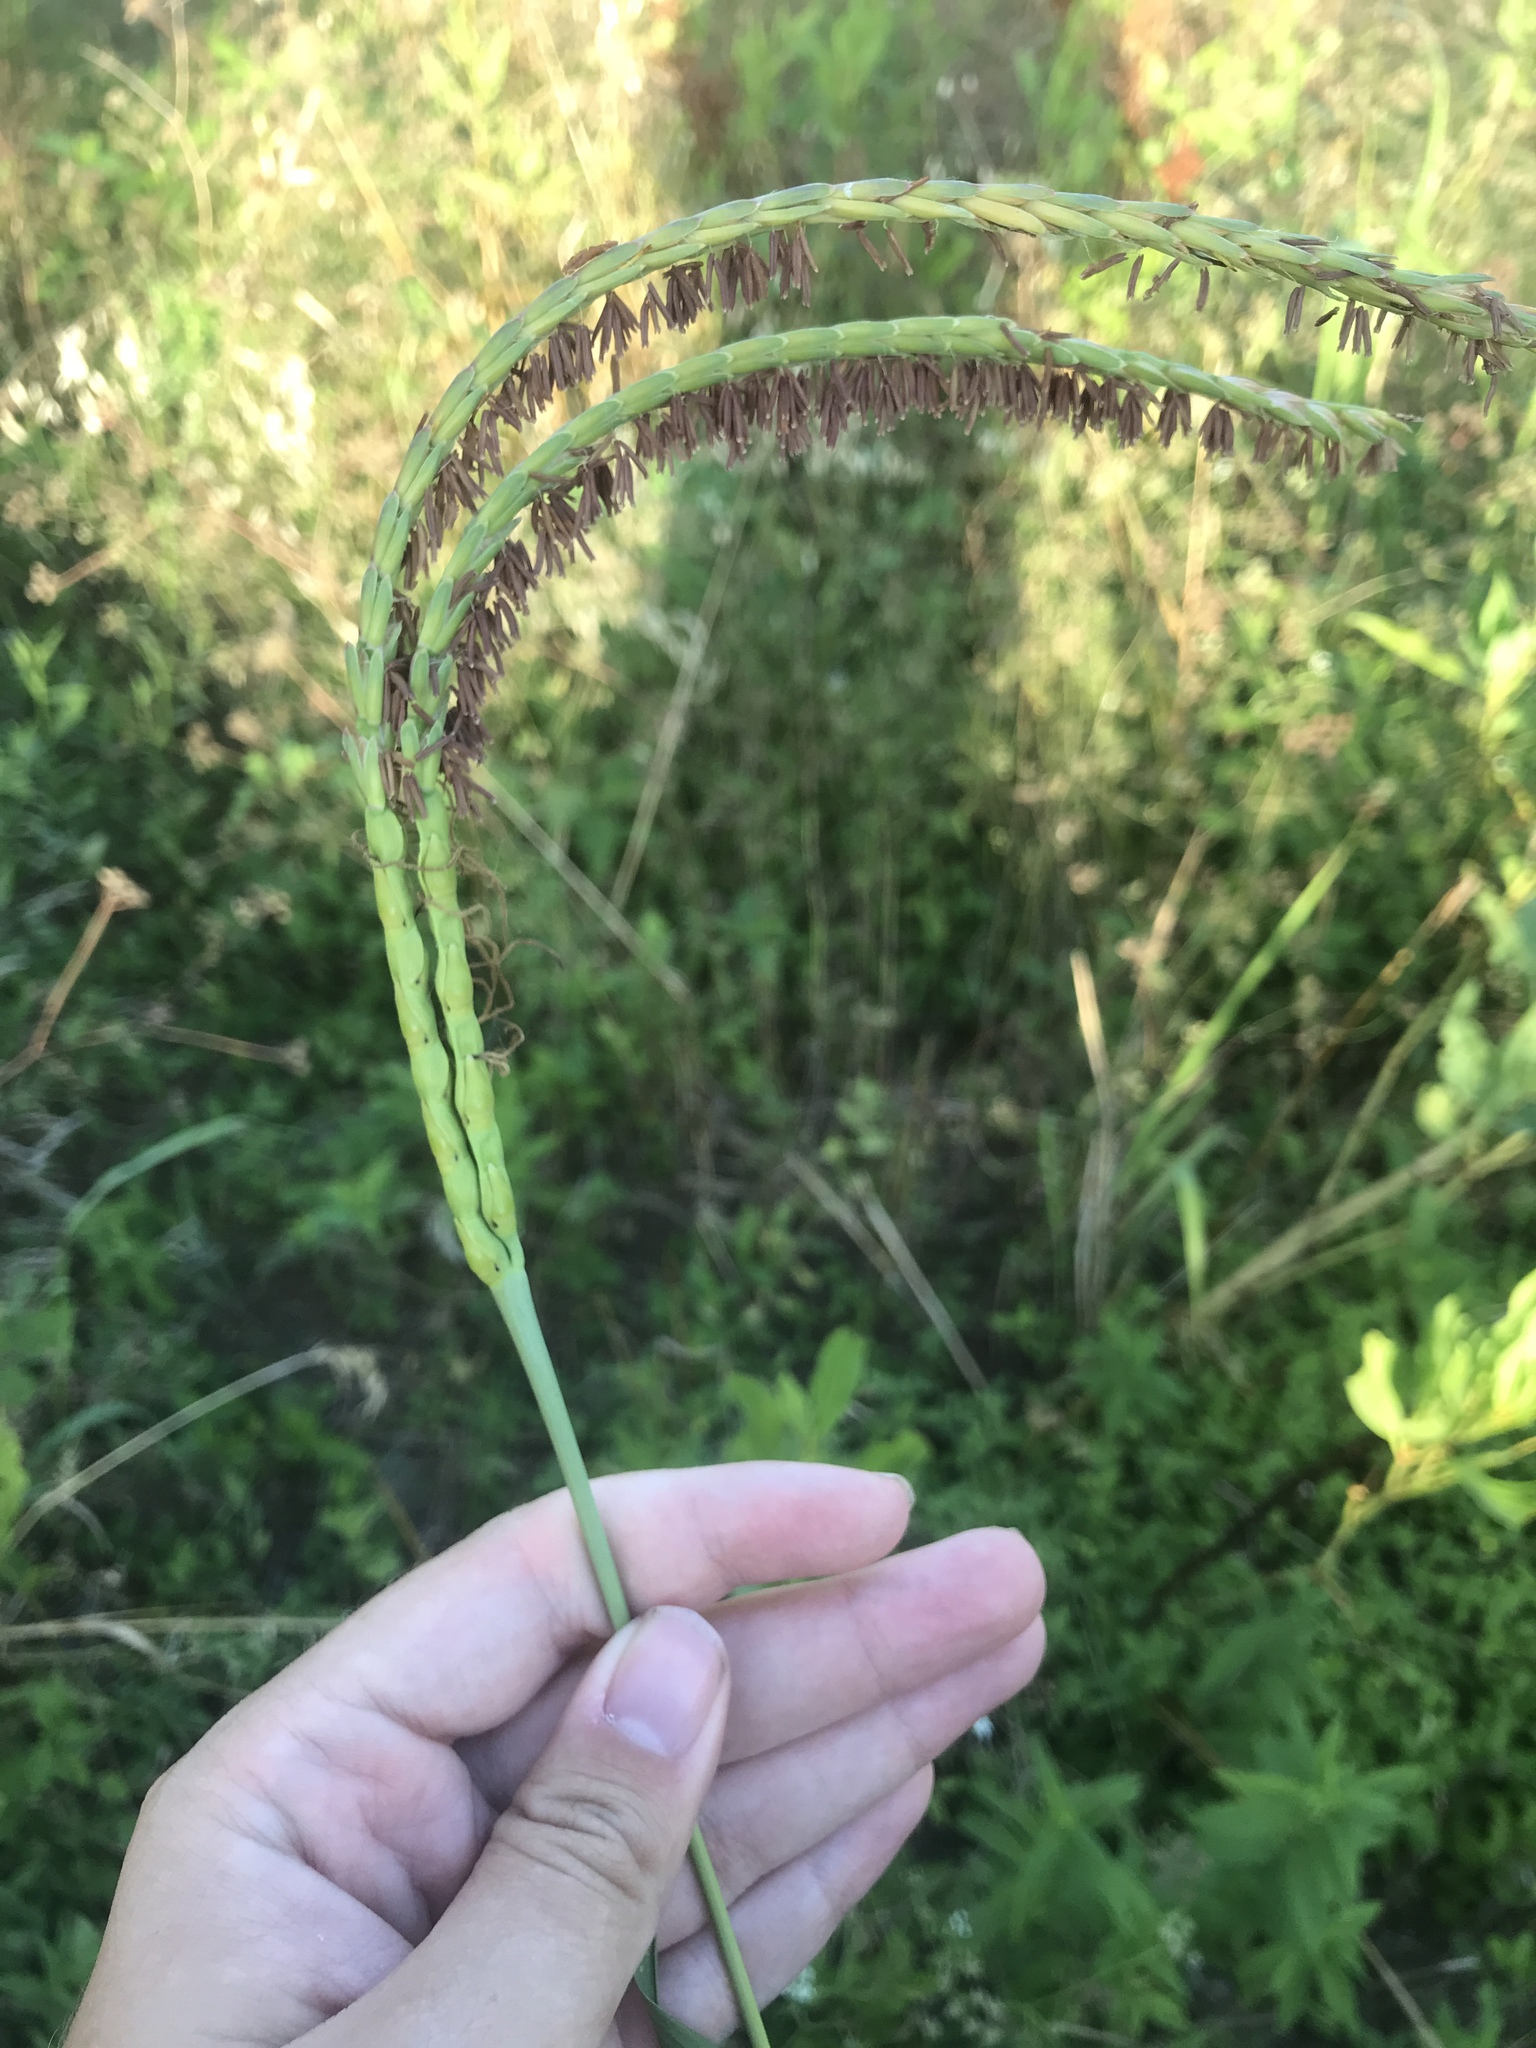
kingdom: Plantae
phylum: Tracheophyta
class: Liliopsida
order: Poales
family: Poaceae
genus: Tripsacum
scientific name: Tripsacum dactyloides
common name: Buffalo-grass
